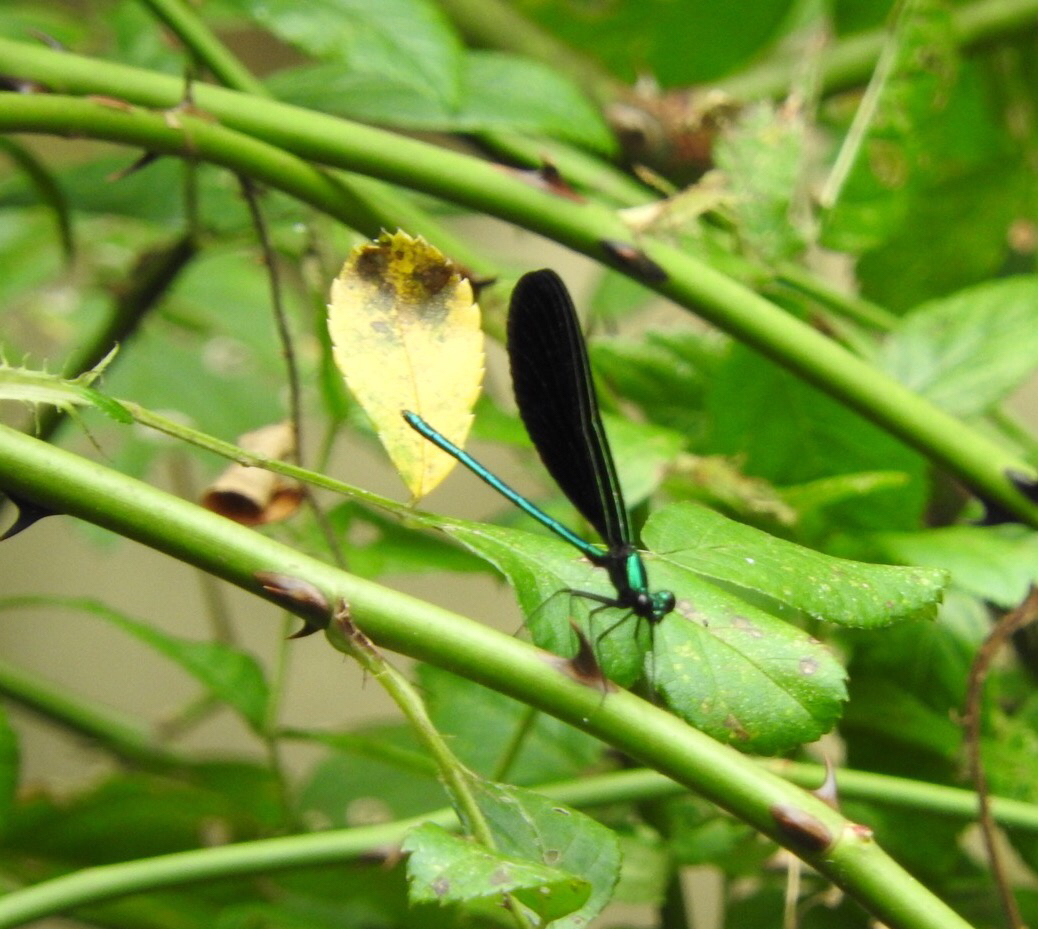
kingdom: Animalia
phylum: Arthropoda
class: Insecta
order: Odonata
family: Calopterygidae
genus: Calopteryx
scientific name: Calopteryx maculata
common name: Ebony jewelwing
